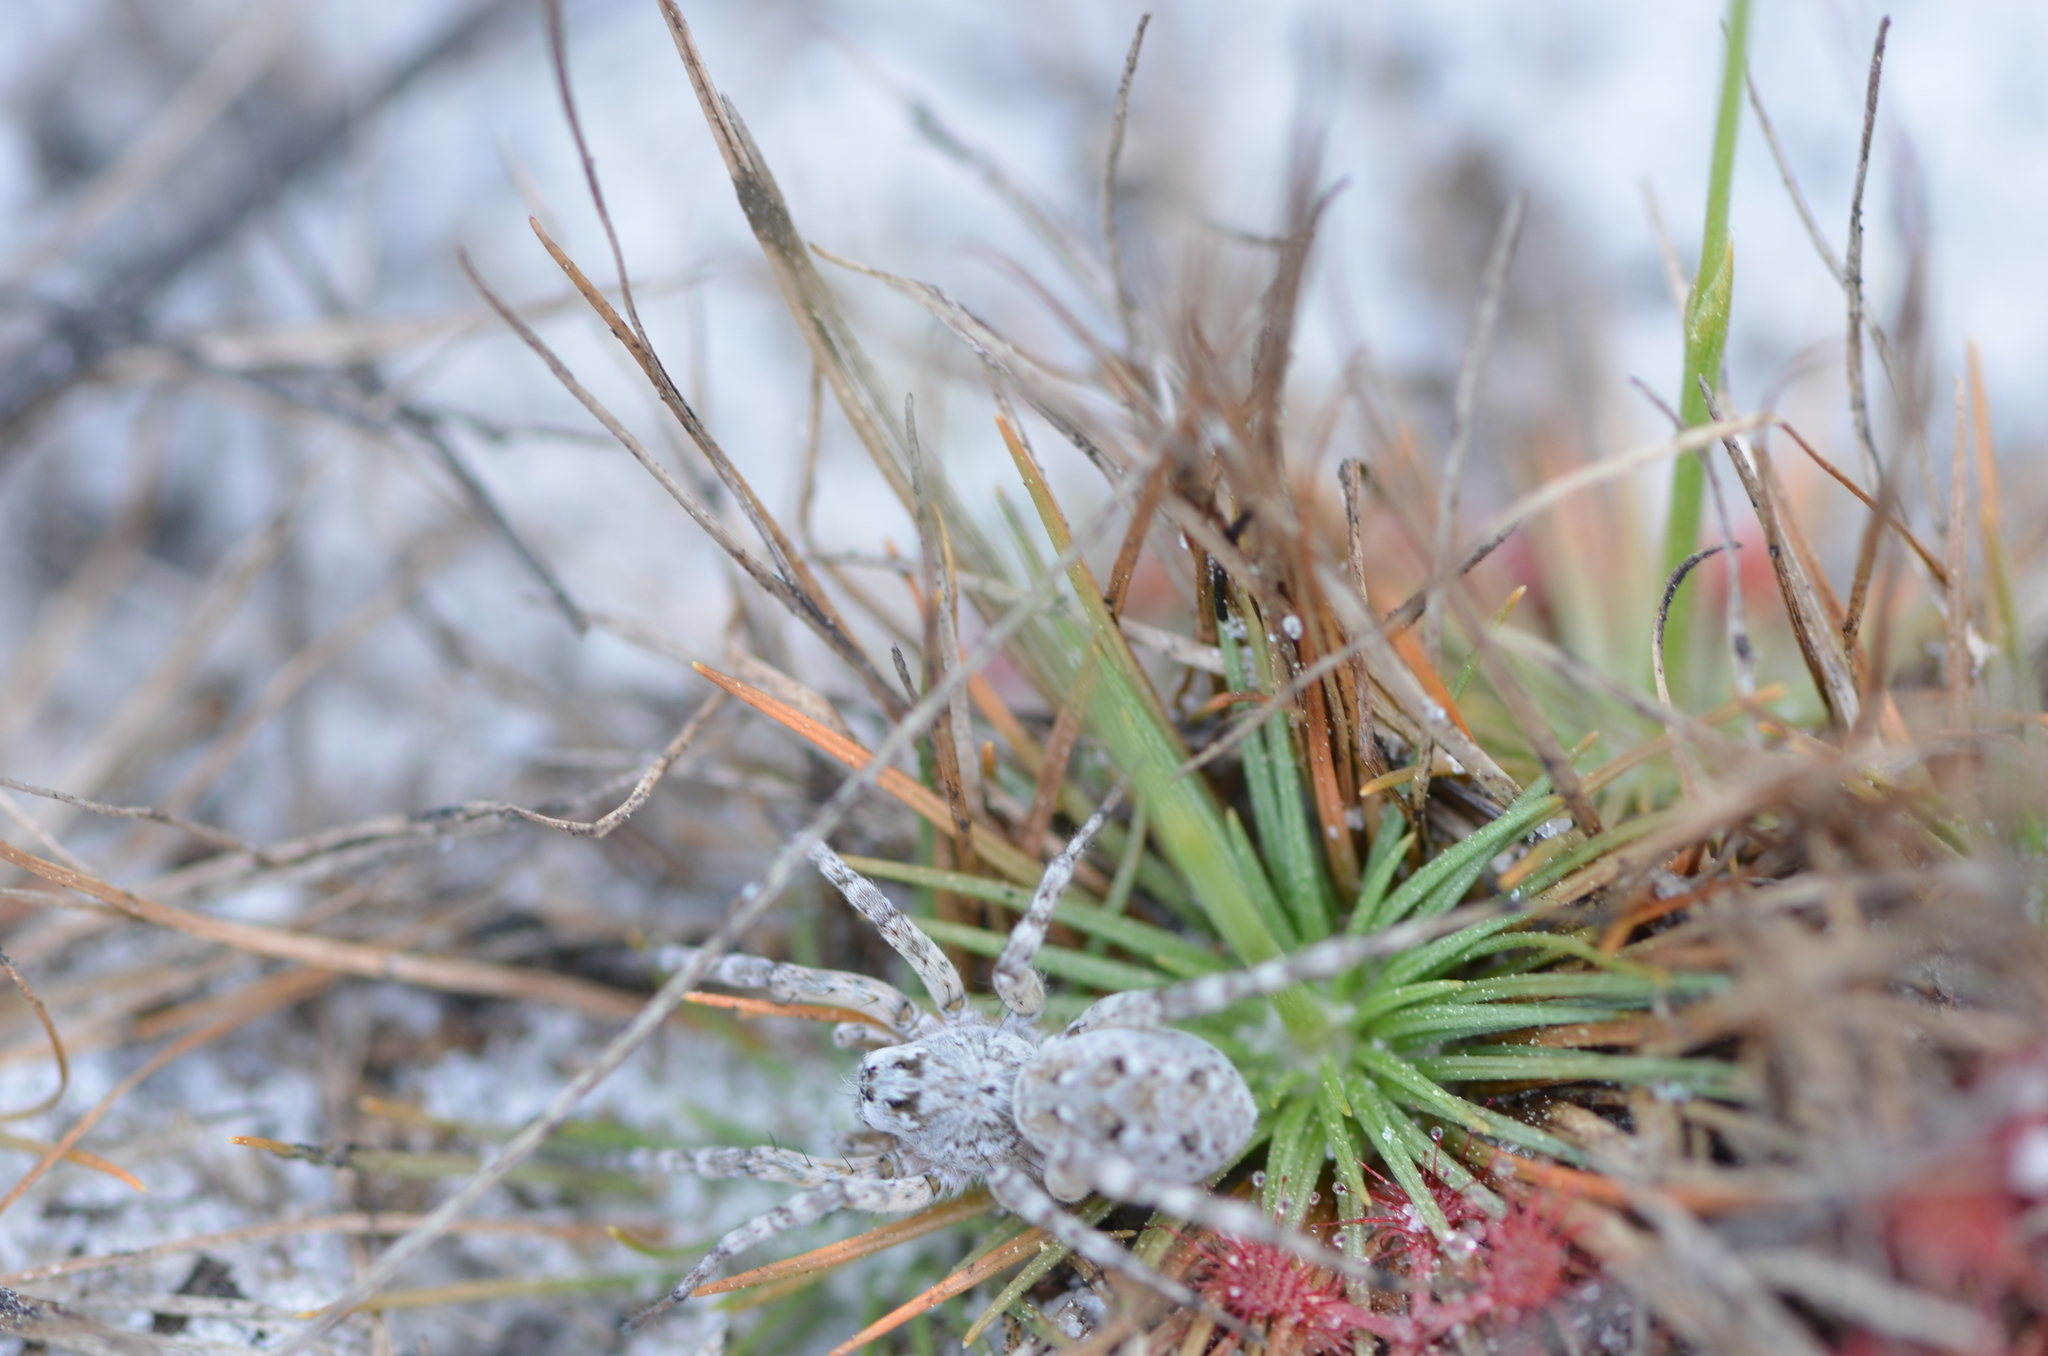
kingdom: Animalia
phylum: Arthropoda
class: Arachnida
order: Araneae
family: Lycosidae
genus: Arctosa
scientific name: Arctosa littoralis
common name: Wolf spiders
